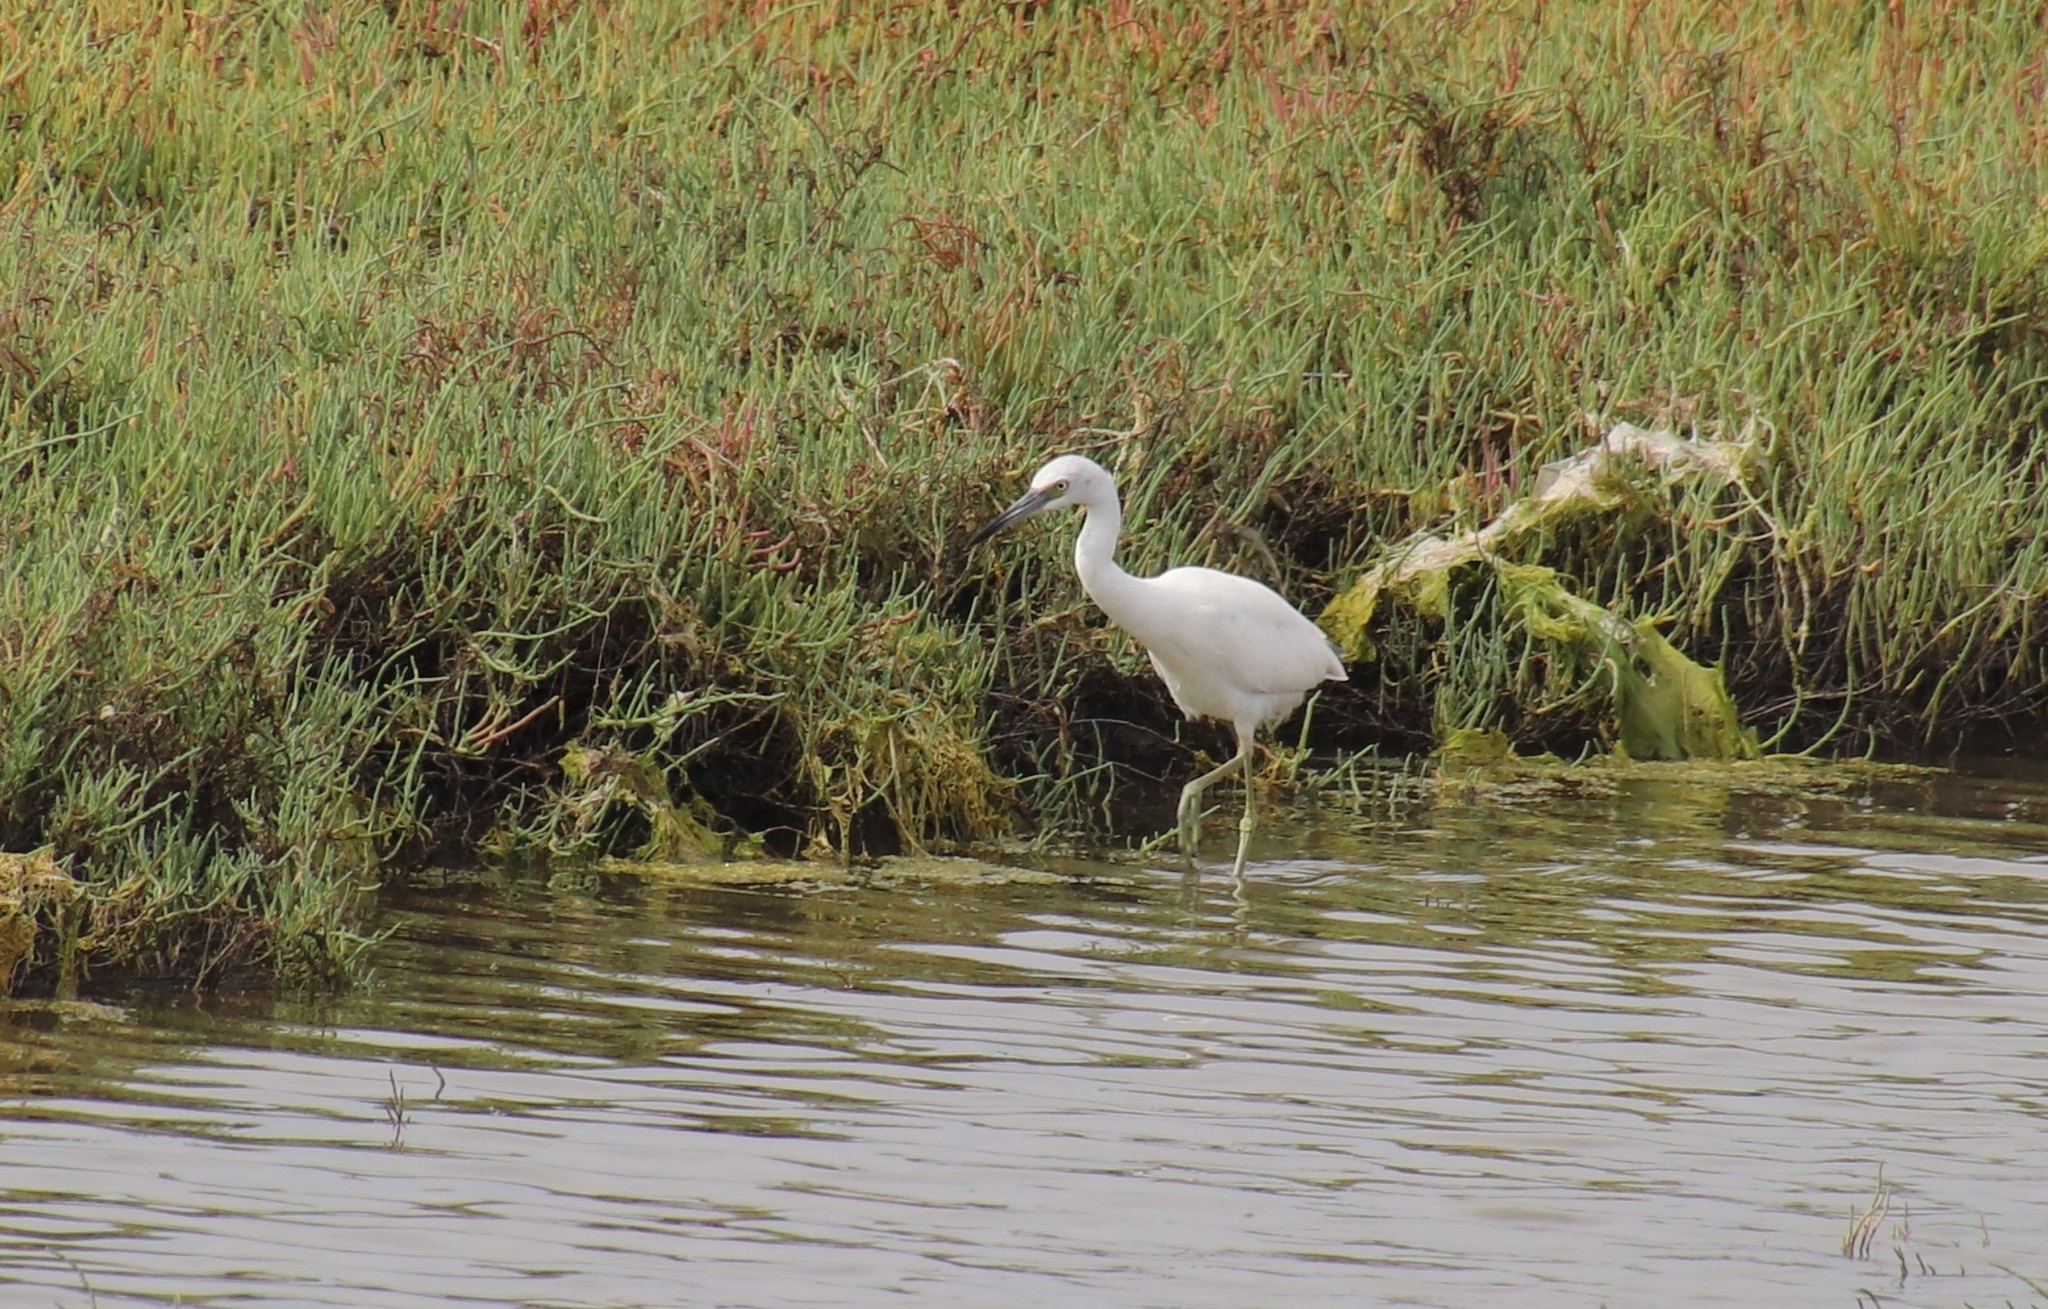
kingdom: Animalia
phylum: Chordata
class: Aves
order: Pelecaniformes
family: Ardeidae
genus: Egretta
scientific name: Egretta caerulea
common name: Little blue heron
